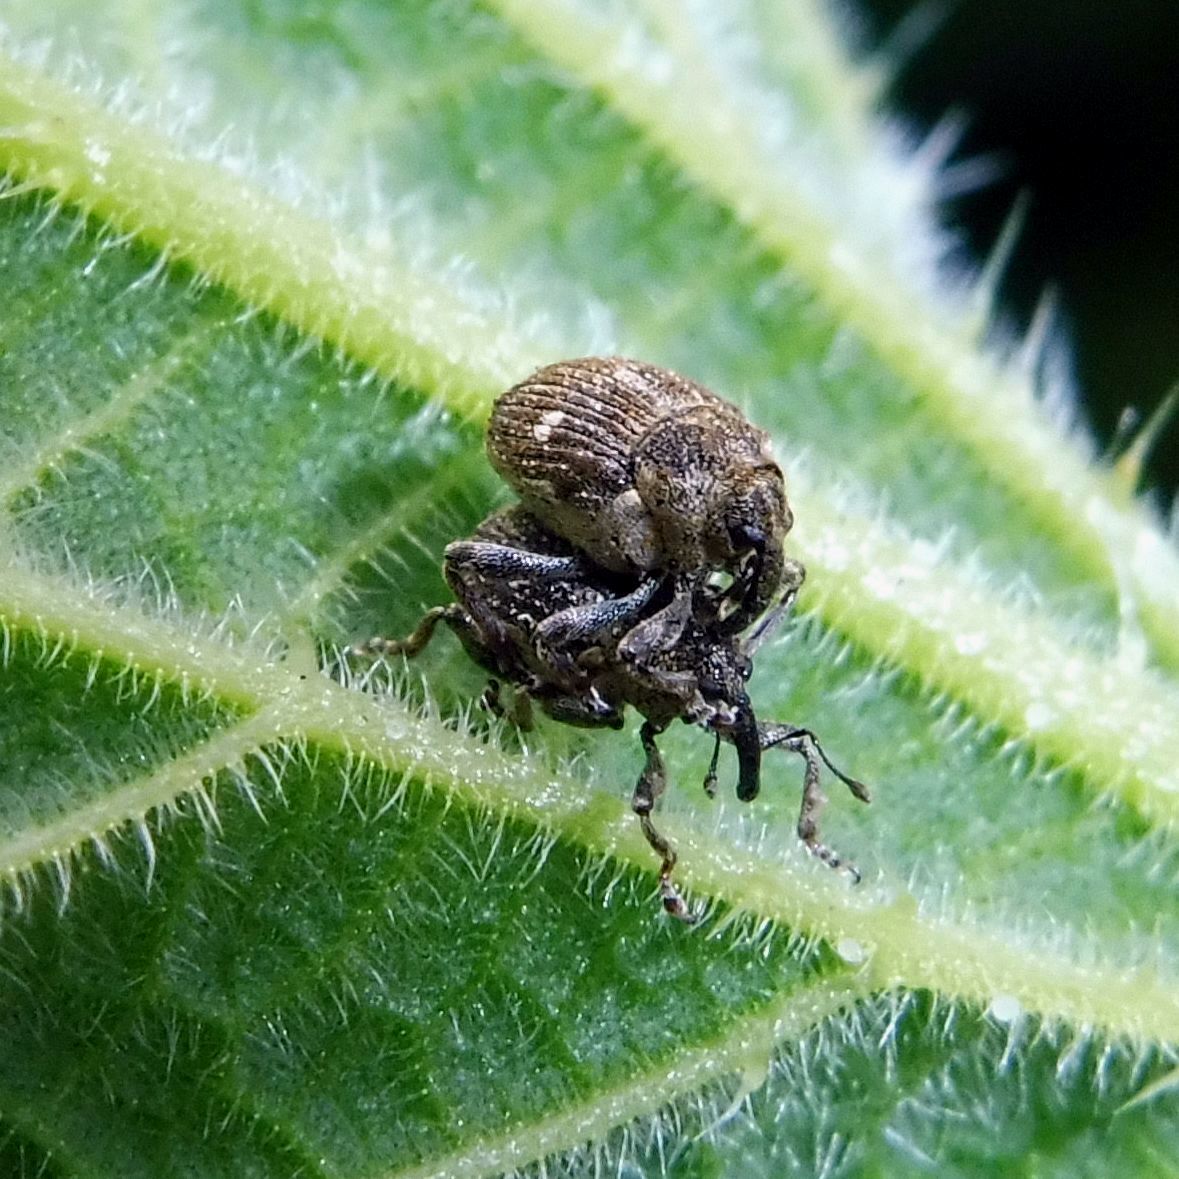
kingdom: Animalia
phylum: Arthropoda
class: Insecta
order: Coleoptera
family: Curculionidae
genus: Nedyus
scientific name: Nedyus quadrimaculatus
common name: Small nettle weevil
